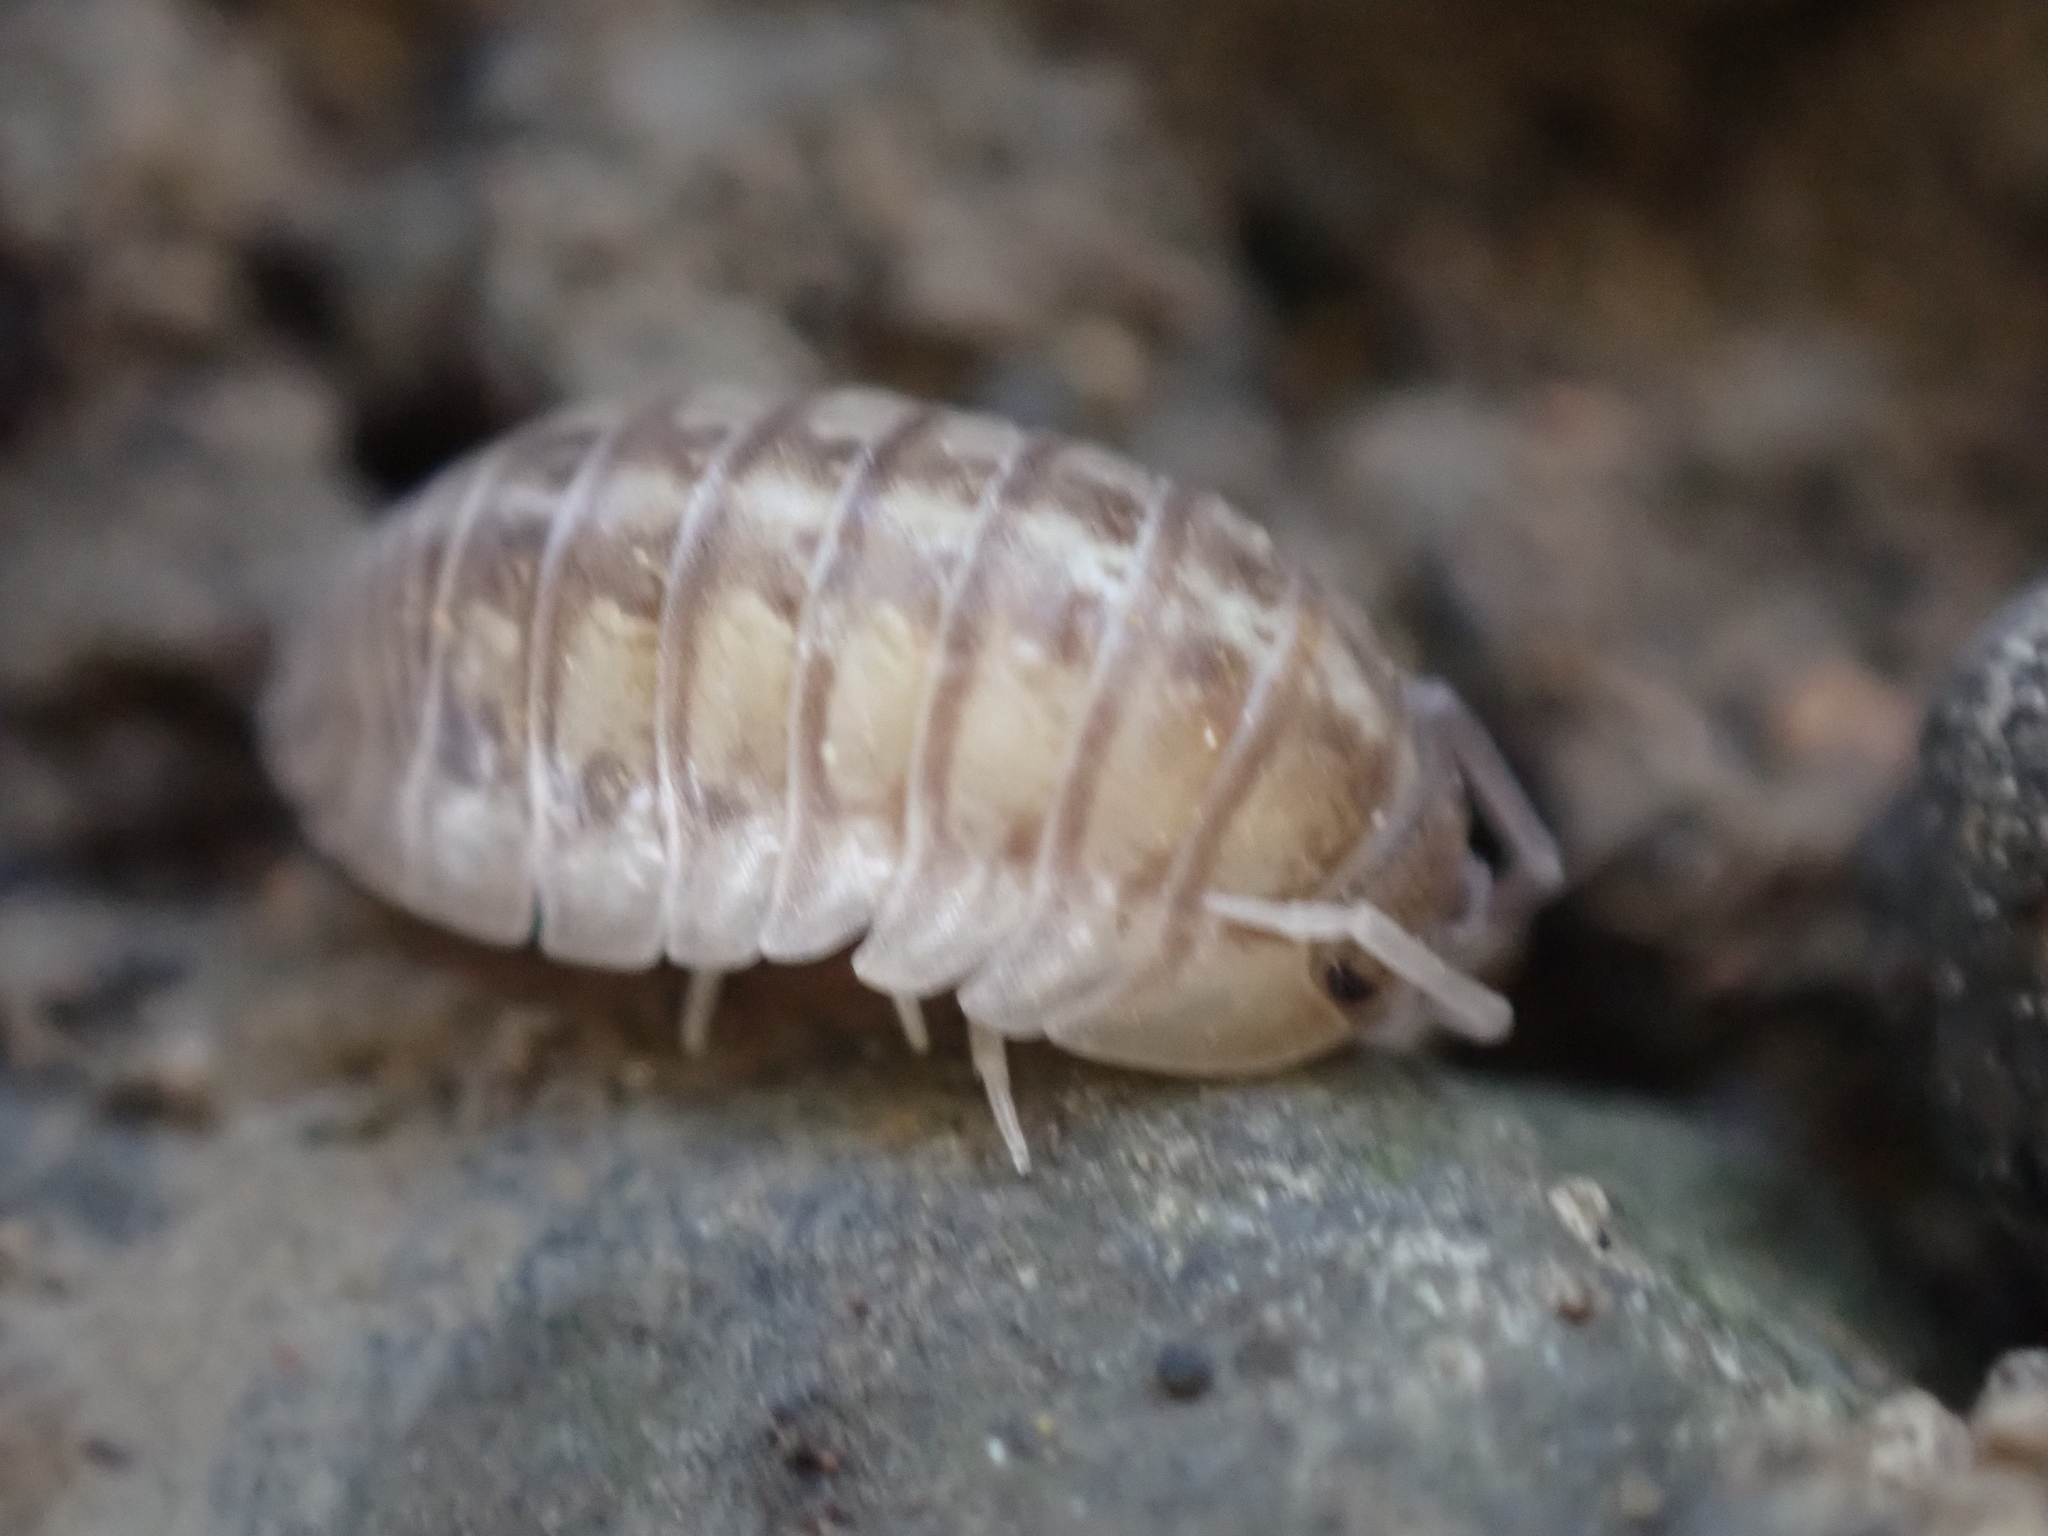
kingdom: Animalia
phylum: Arthropoda
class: Malacostraca
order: Isopoda
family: Armadillidiidae
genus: Armadillidium
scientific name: Armadillidium nasatum
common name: Isopod
